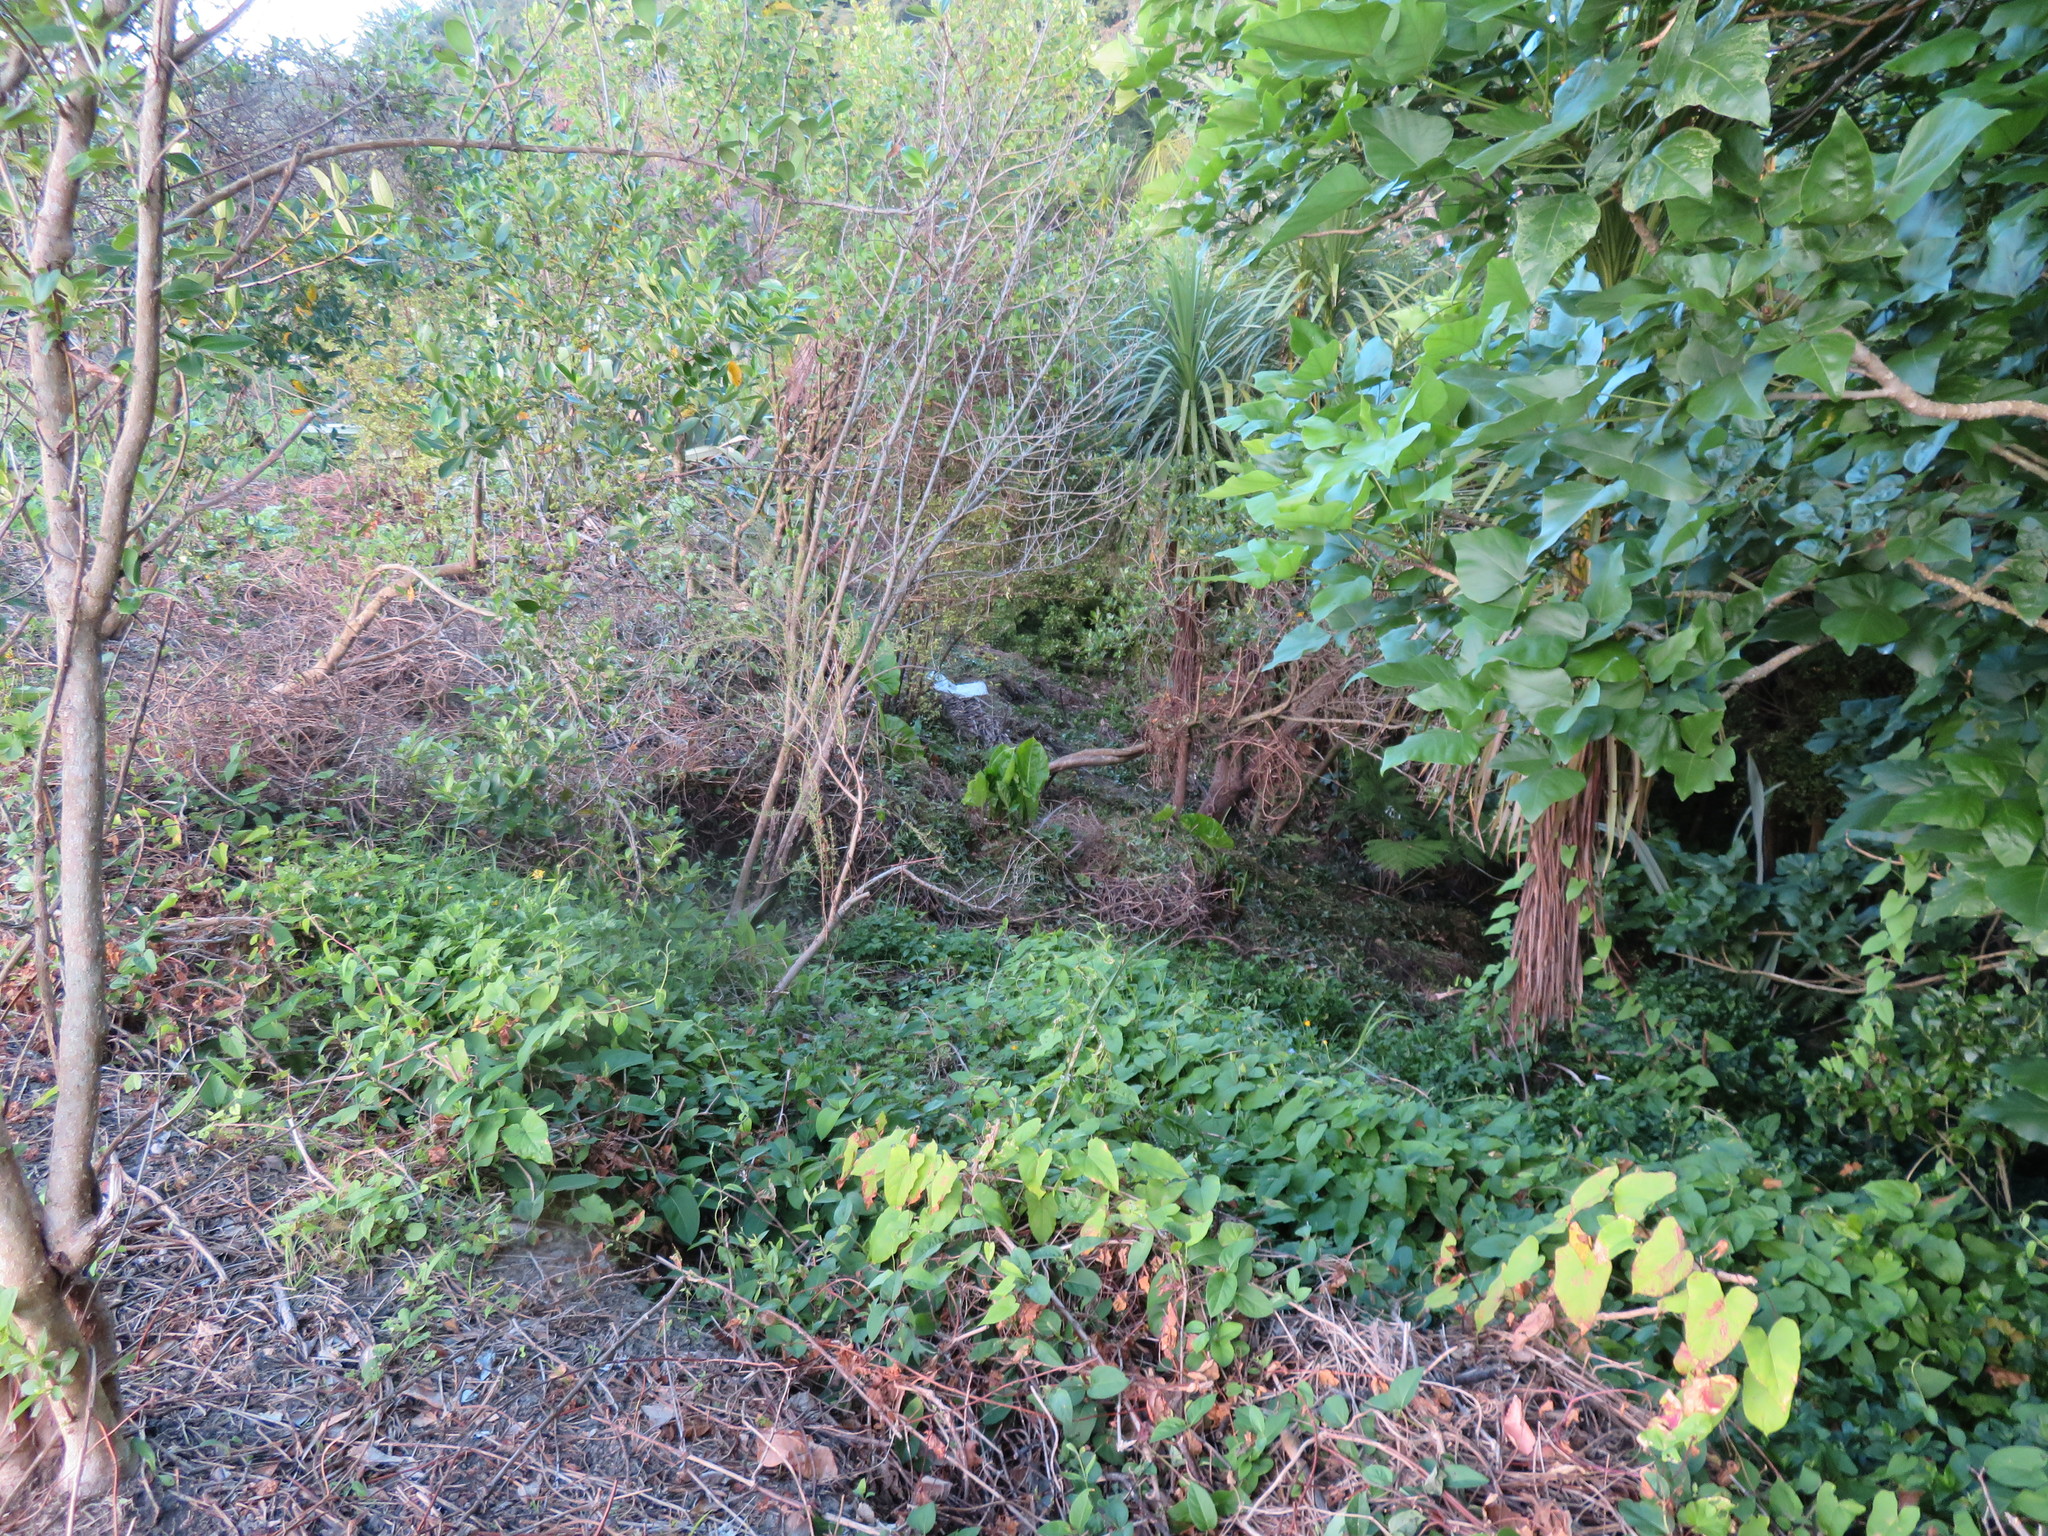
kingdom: Plantae
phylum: Tracheophyta
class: Liliopsida
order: Alismatales
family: Araceae
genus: Alocasia
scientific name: Alocasia brisbanensis
